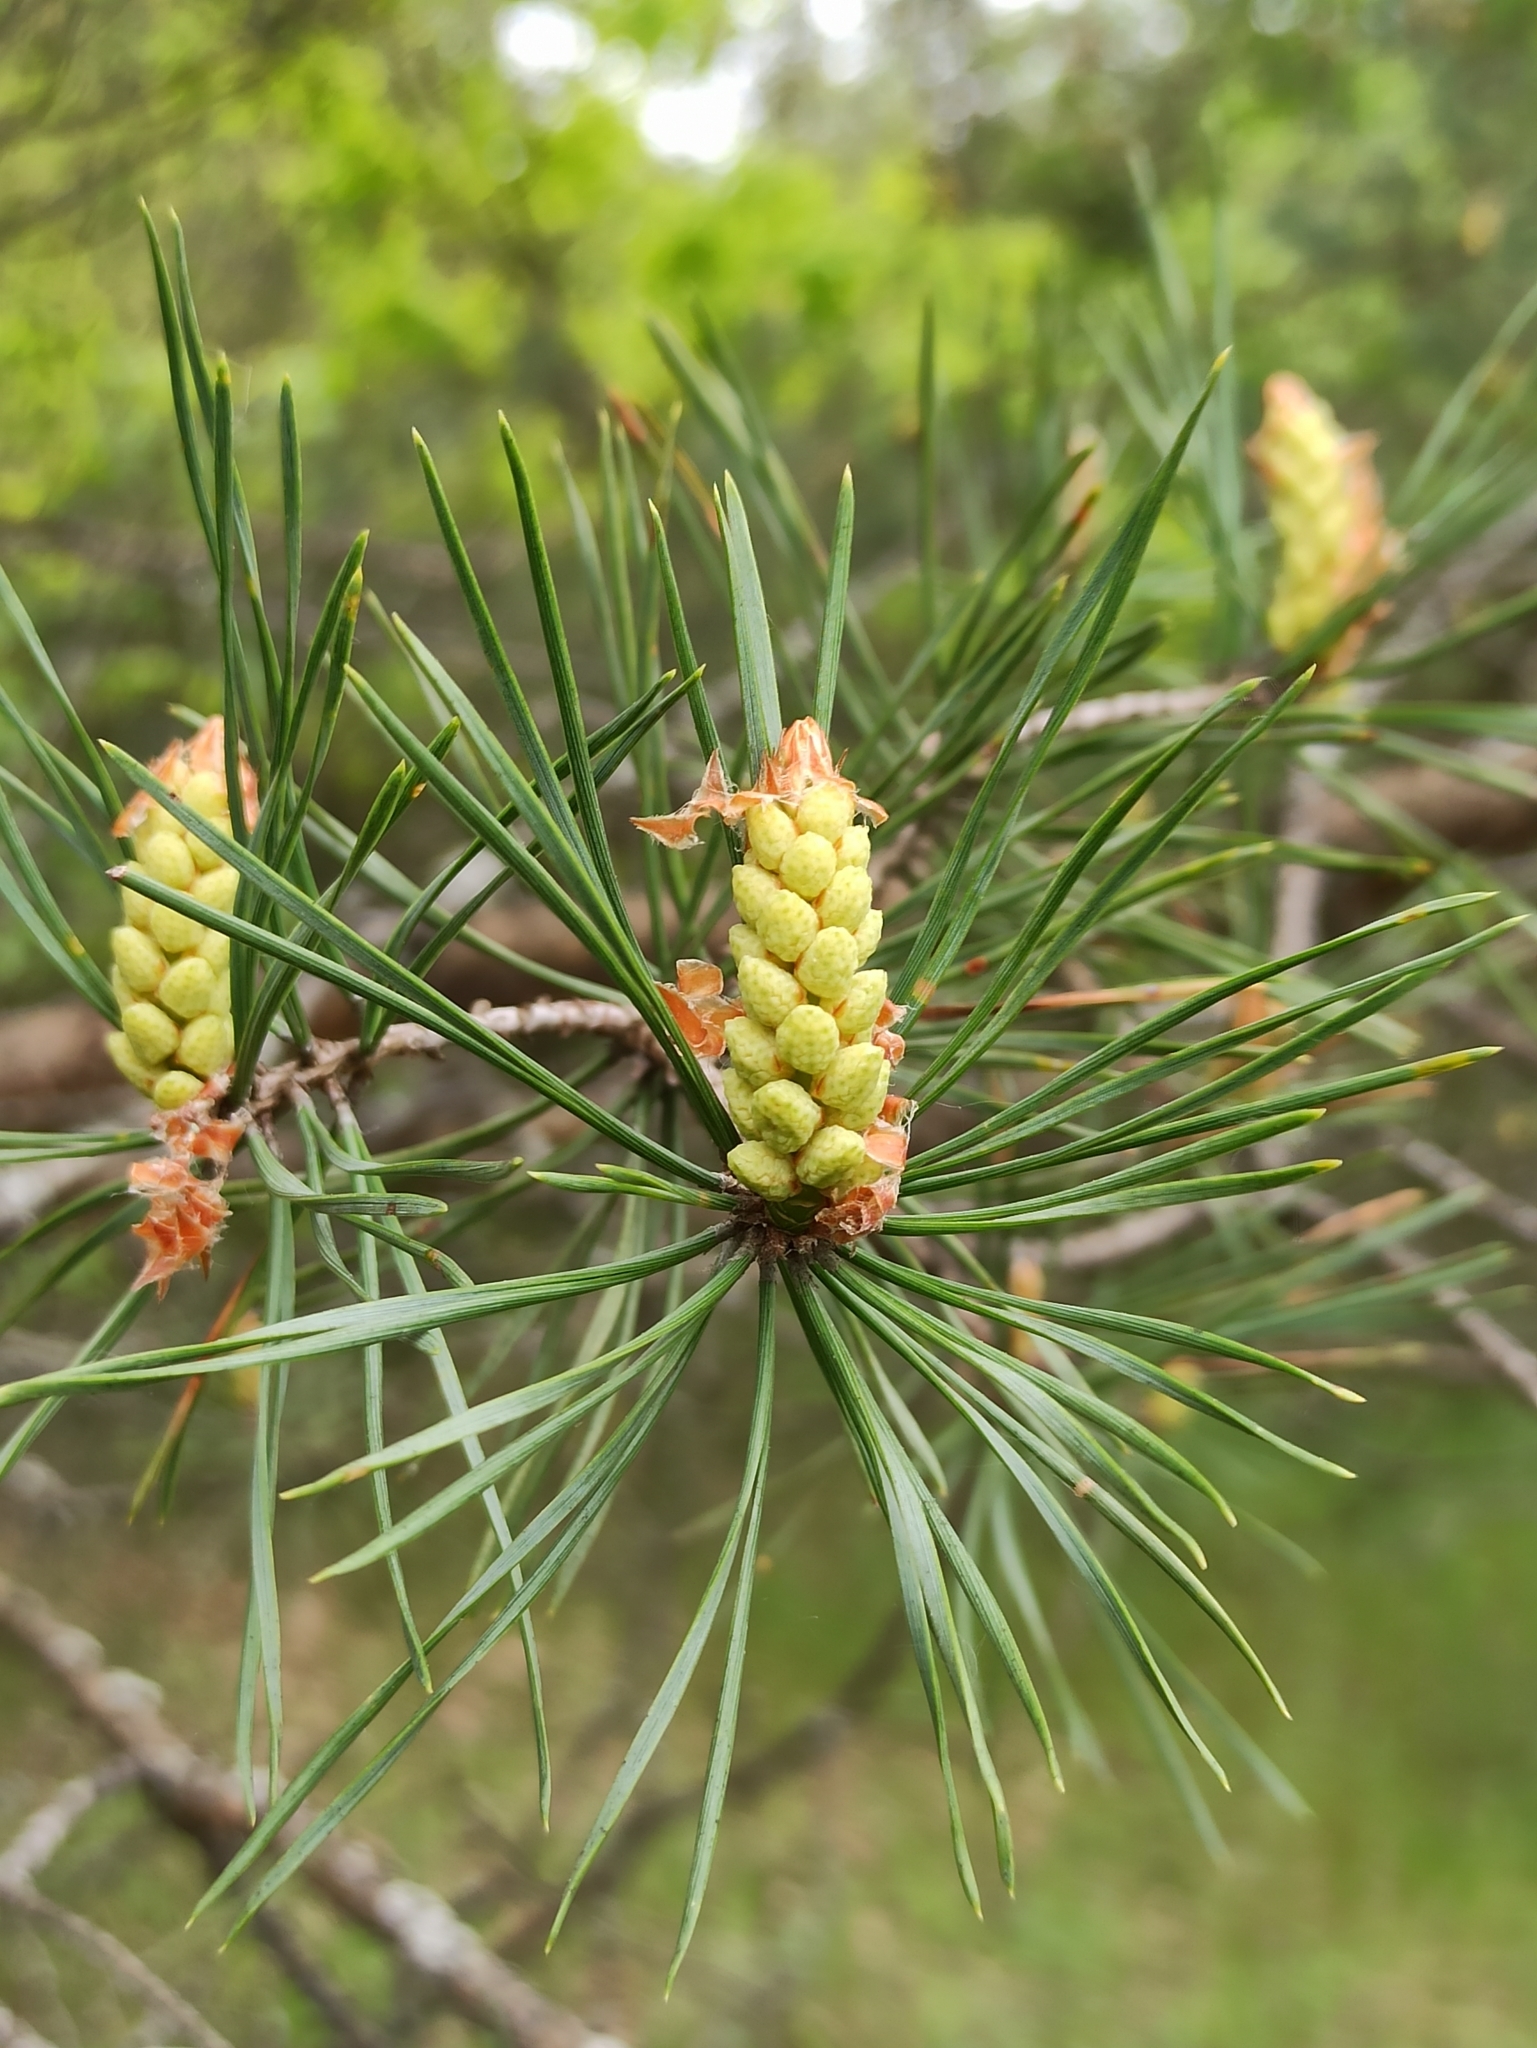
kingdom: Plantae
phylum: Tracheophyta
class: Pinopsida
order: Pinales
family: Pinaceae
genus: Pinus
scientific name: Pinus sylvestris
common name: Scots pine
